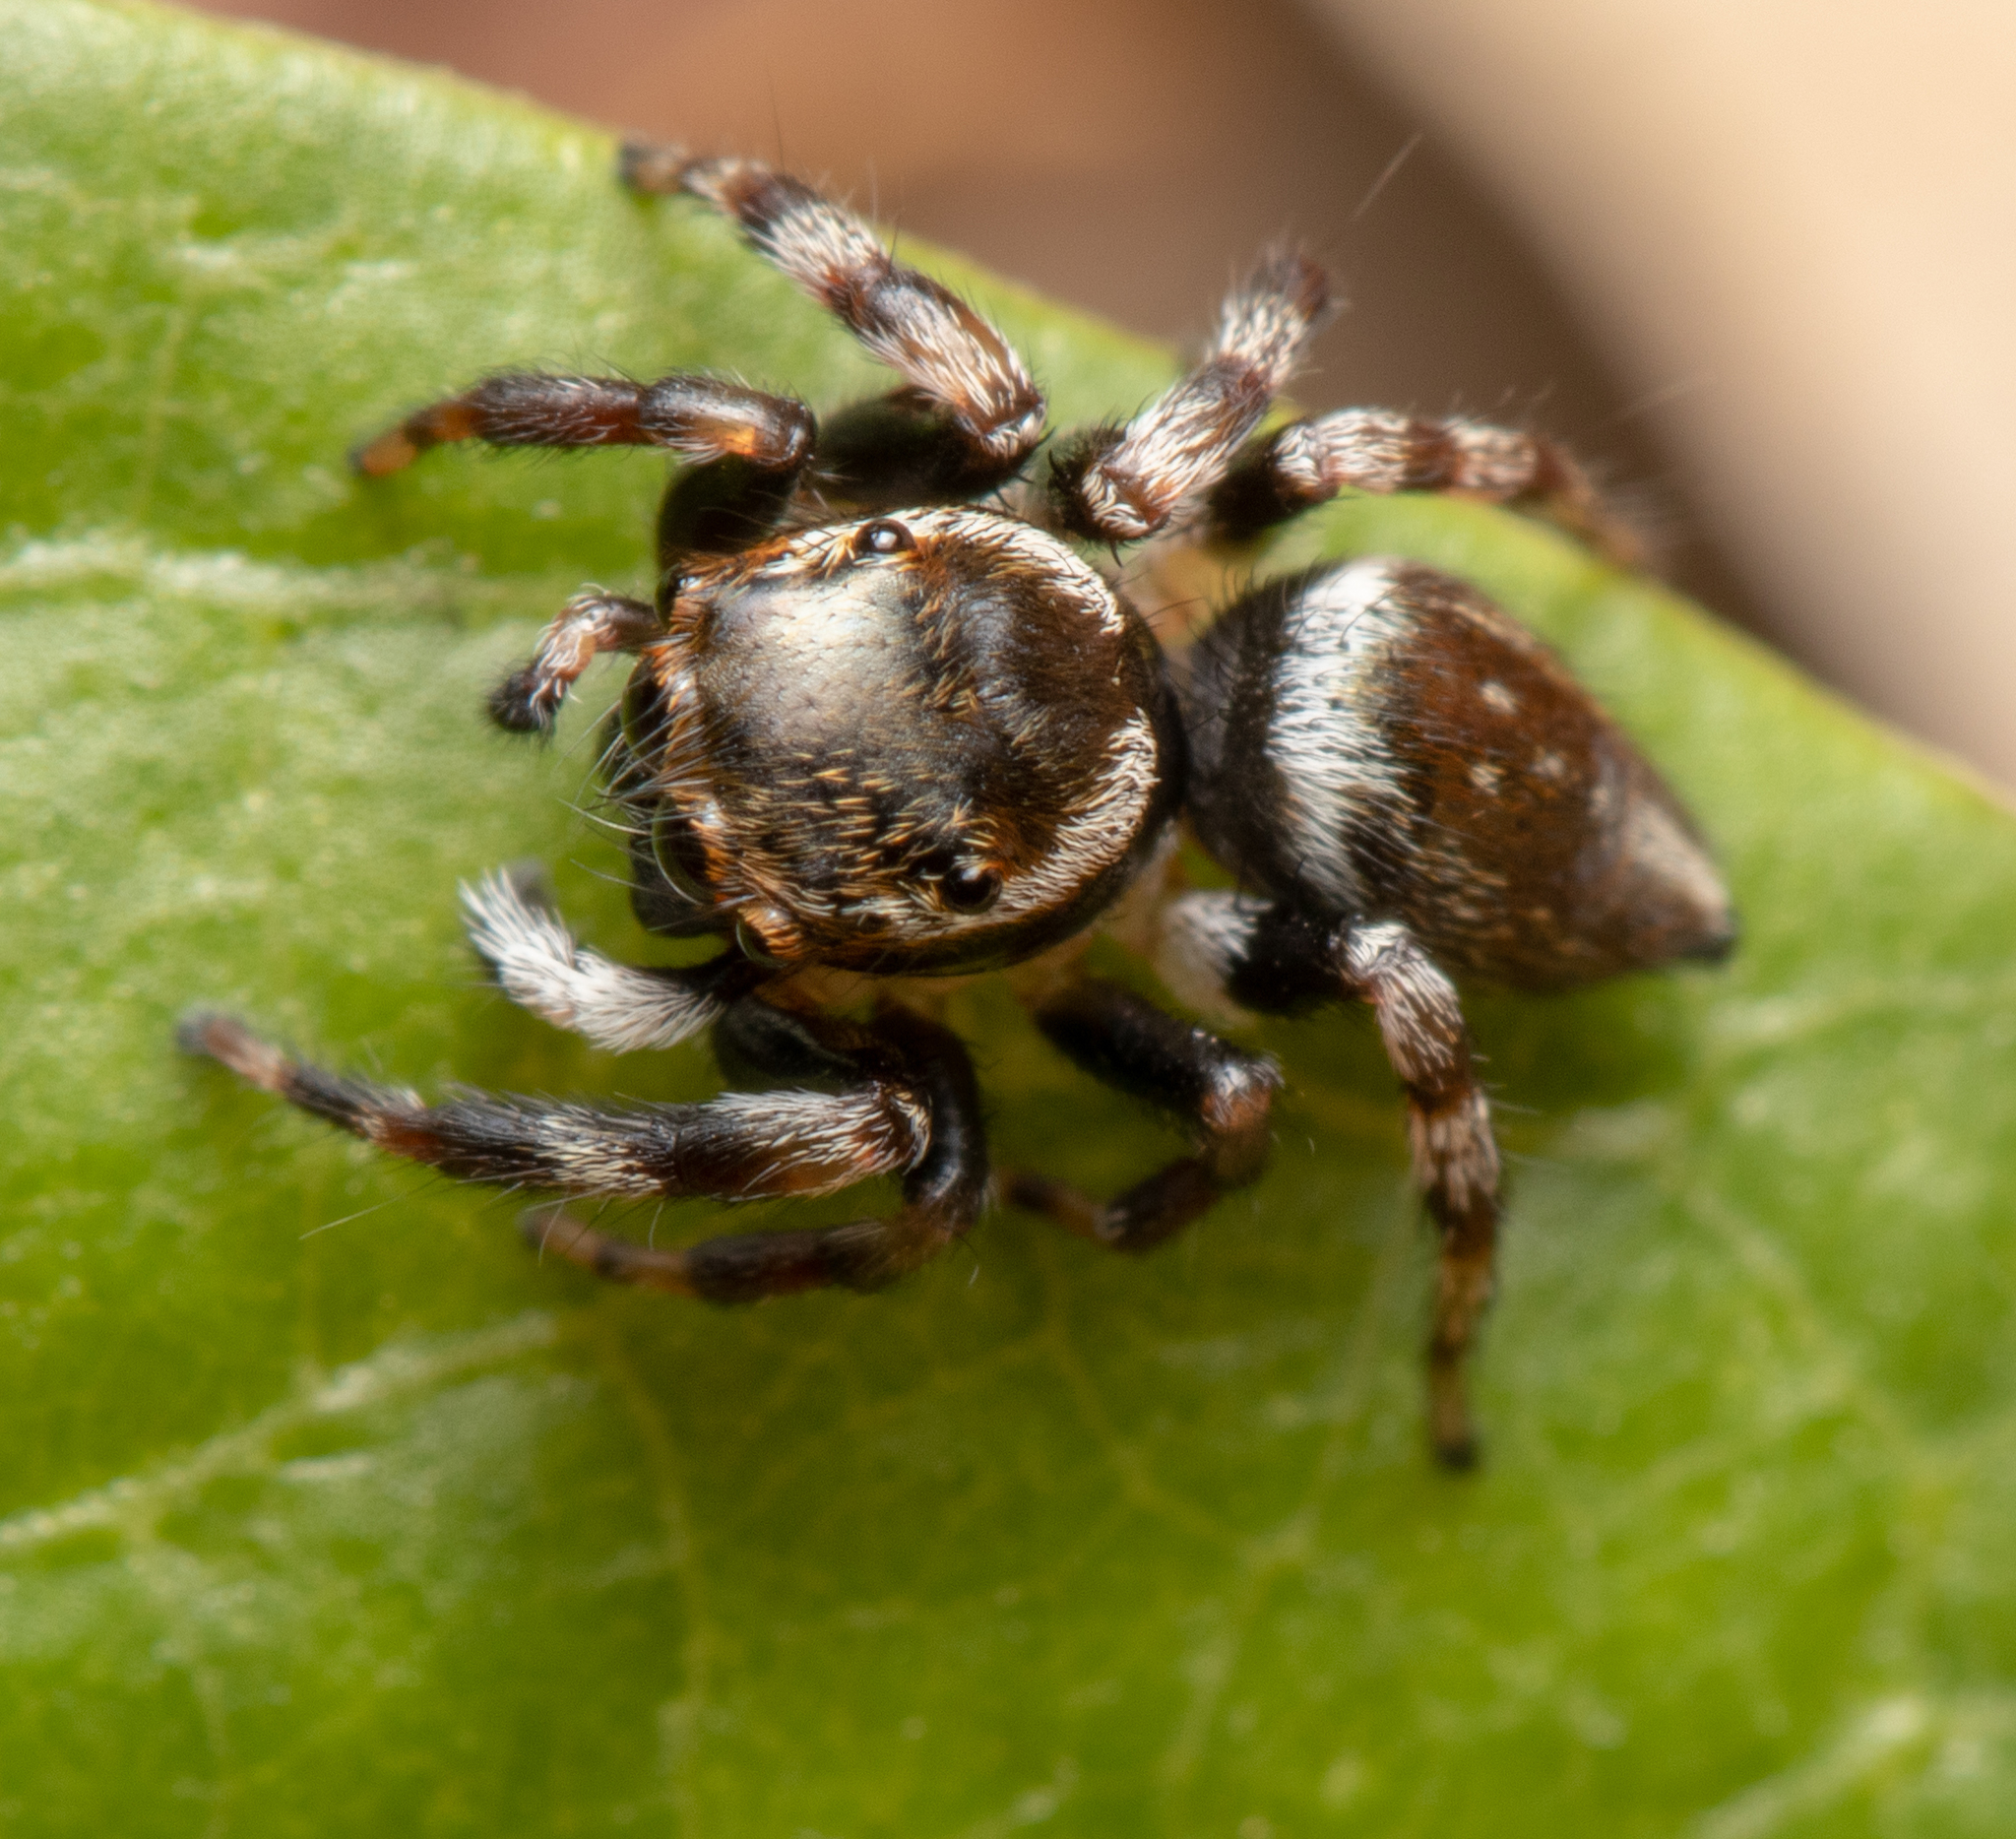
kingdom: Animalia
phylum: Arthropoda
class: Arachnida
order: Araneae
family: Salticidae
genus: Maratus
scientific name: Maratus scutulatus
